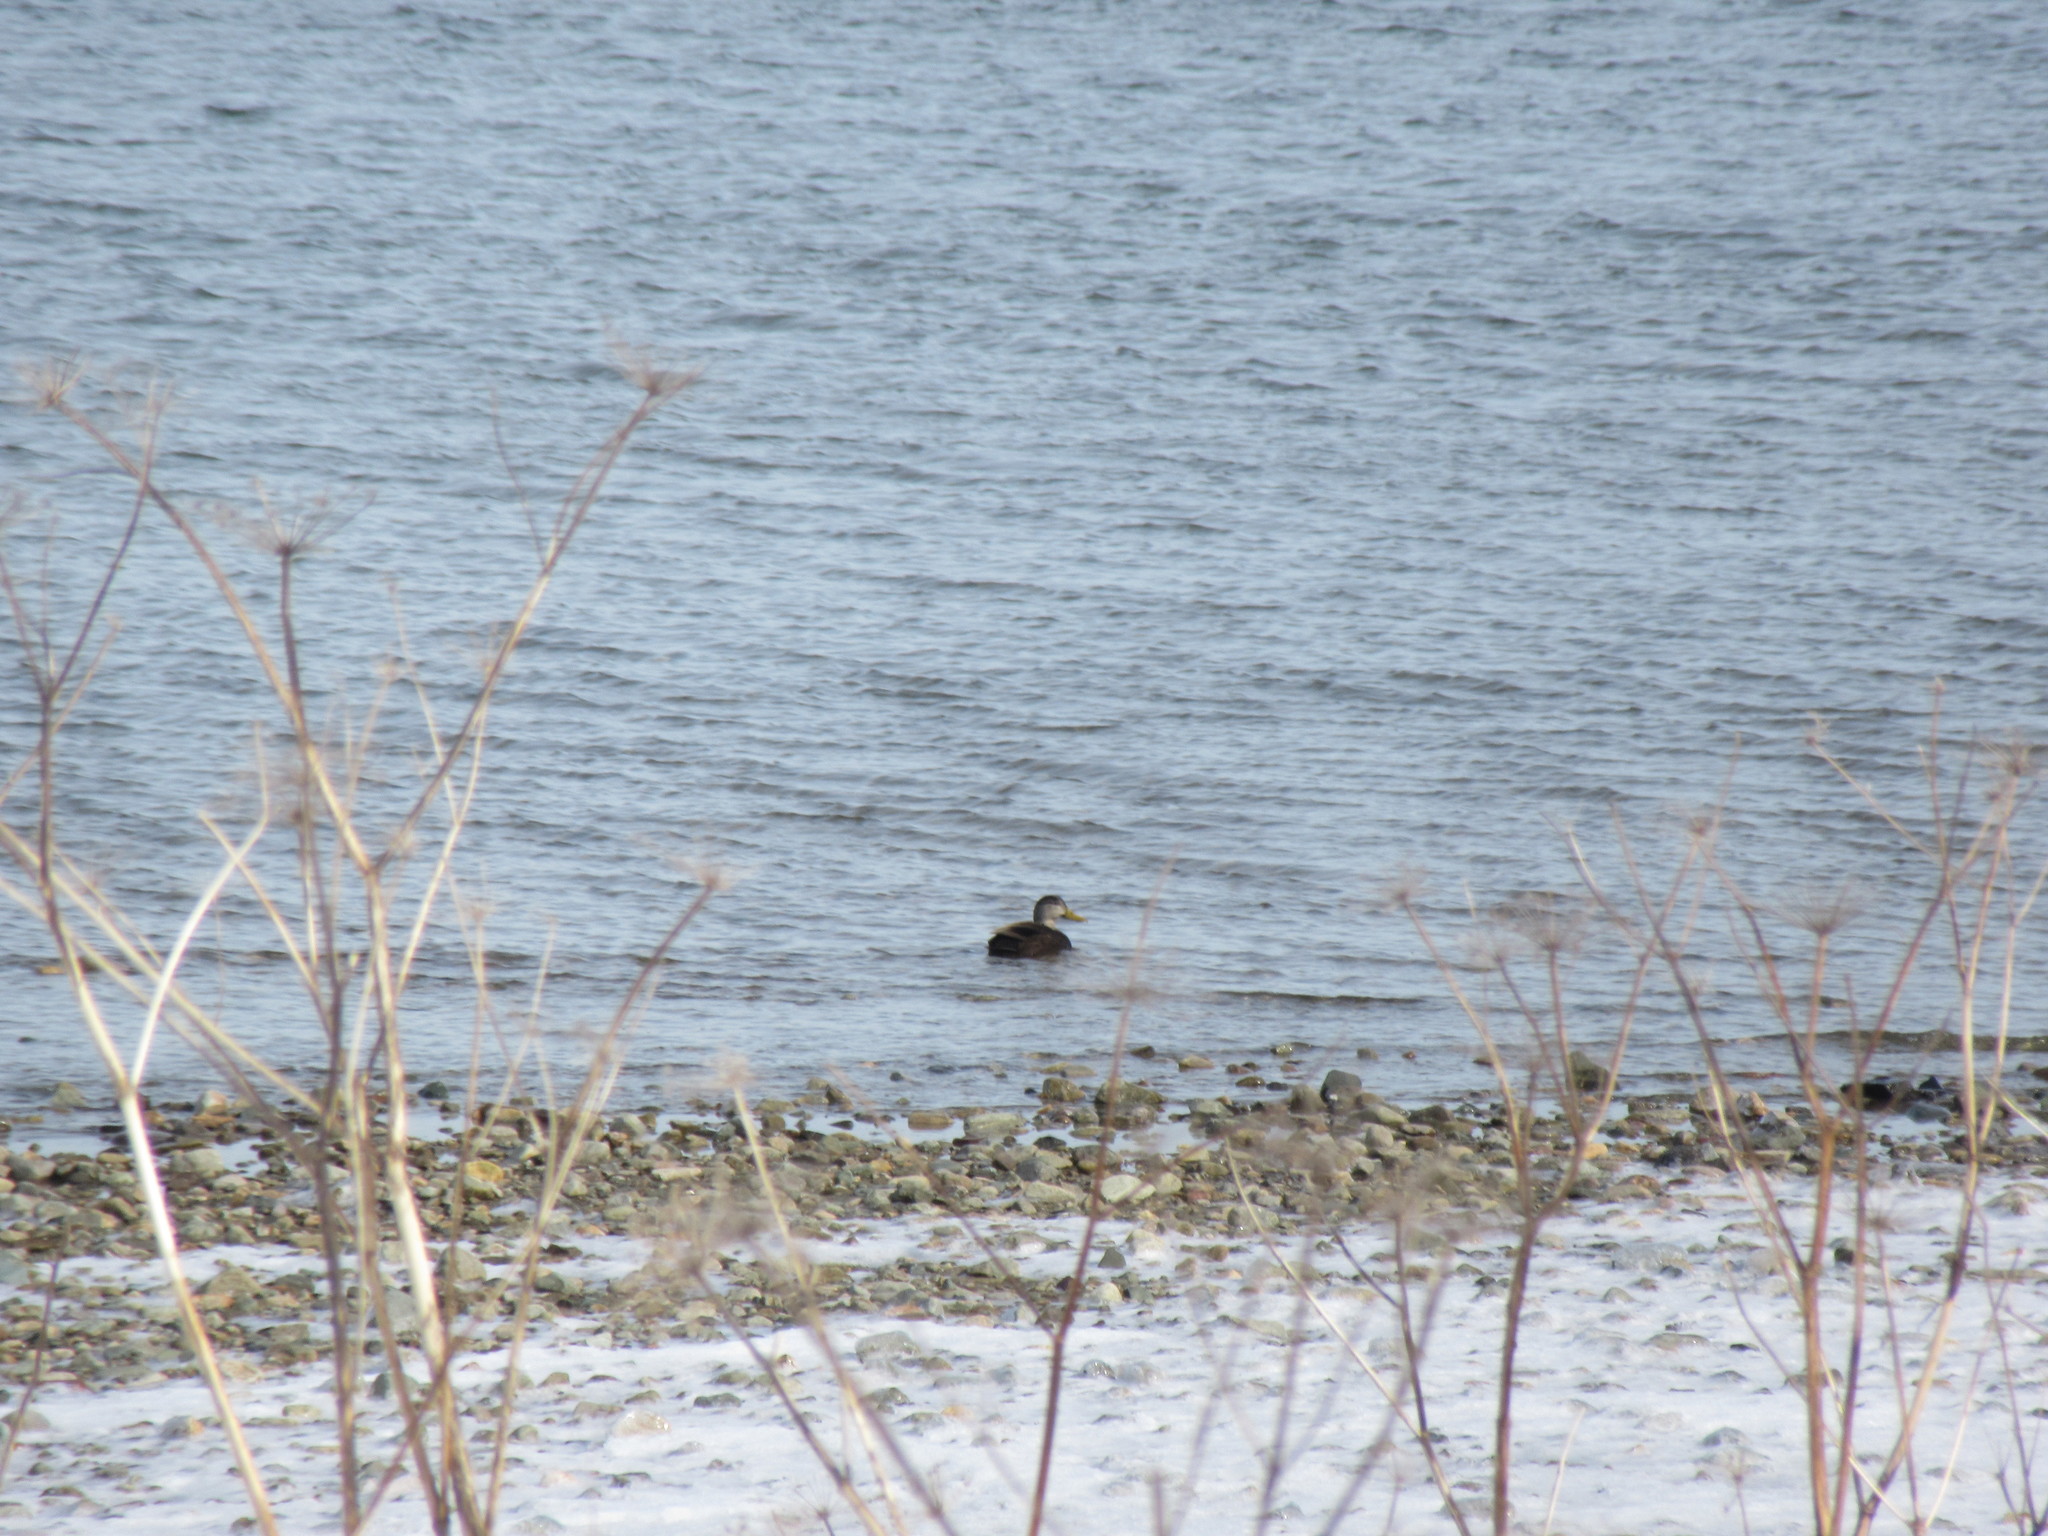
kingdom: Animalia
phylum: Chordata
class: Aves
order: Anseriformes
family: Anatidae
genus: Anas
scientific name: Anas rubripes
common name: American black duck
